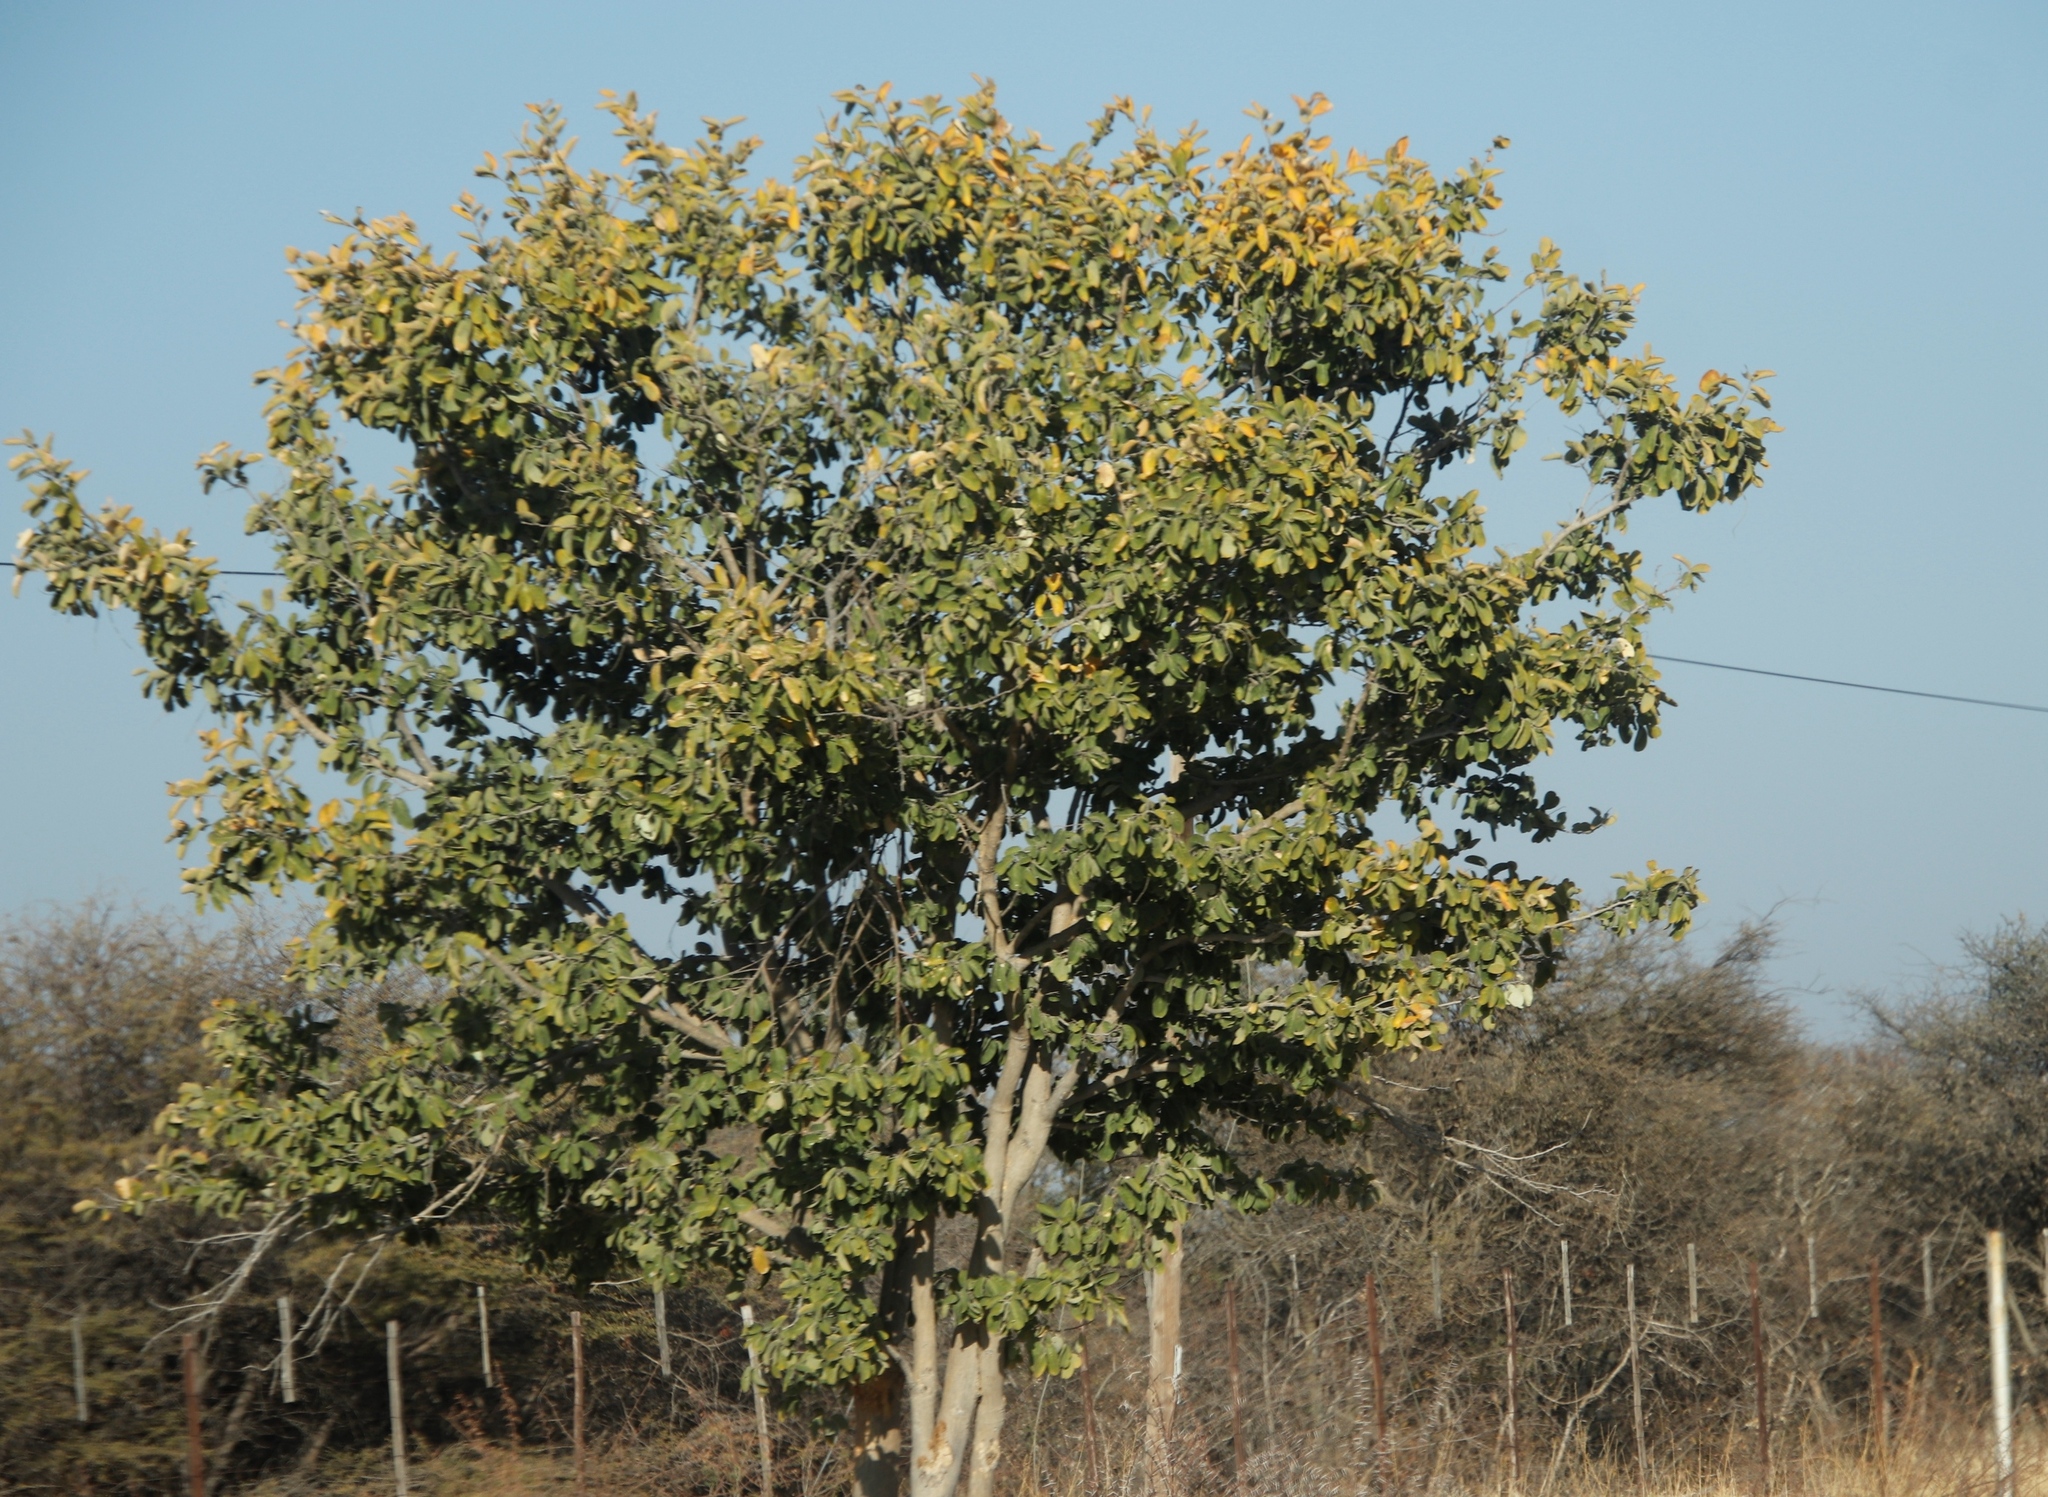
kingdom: Plantae
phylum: Tracheophyta
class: Magnoliopsida
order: Fabales
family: Fabaceae
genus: Philenoptera
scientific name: Philenoptera nelsii
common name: Kalahari apple-leaf
